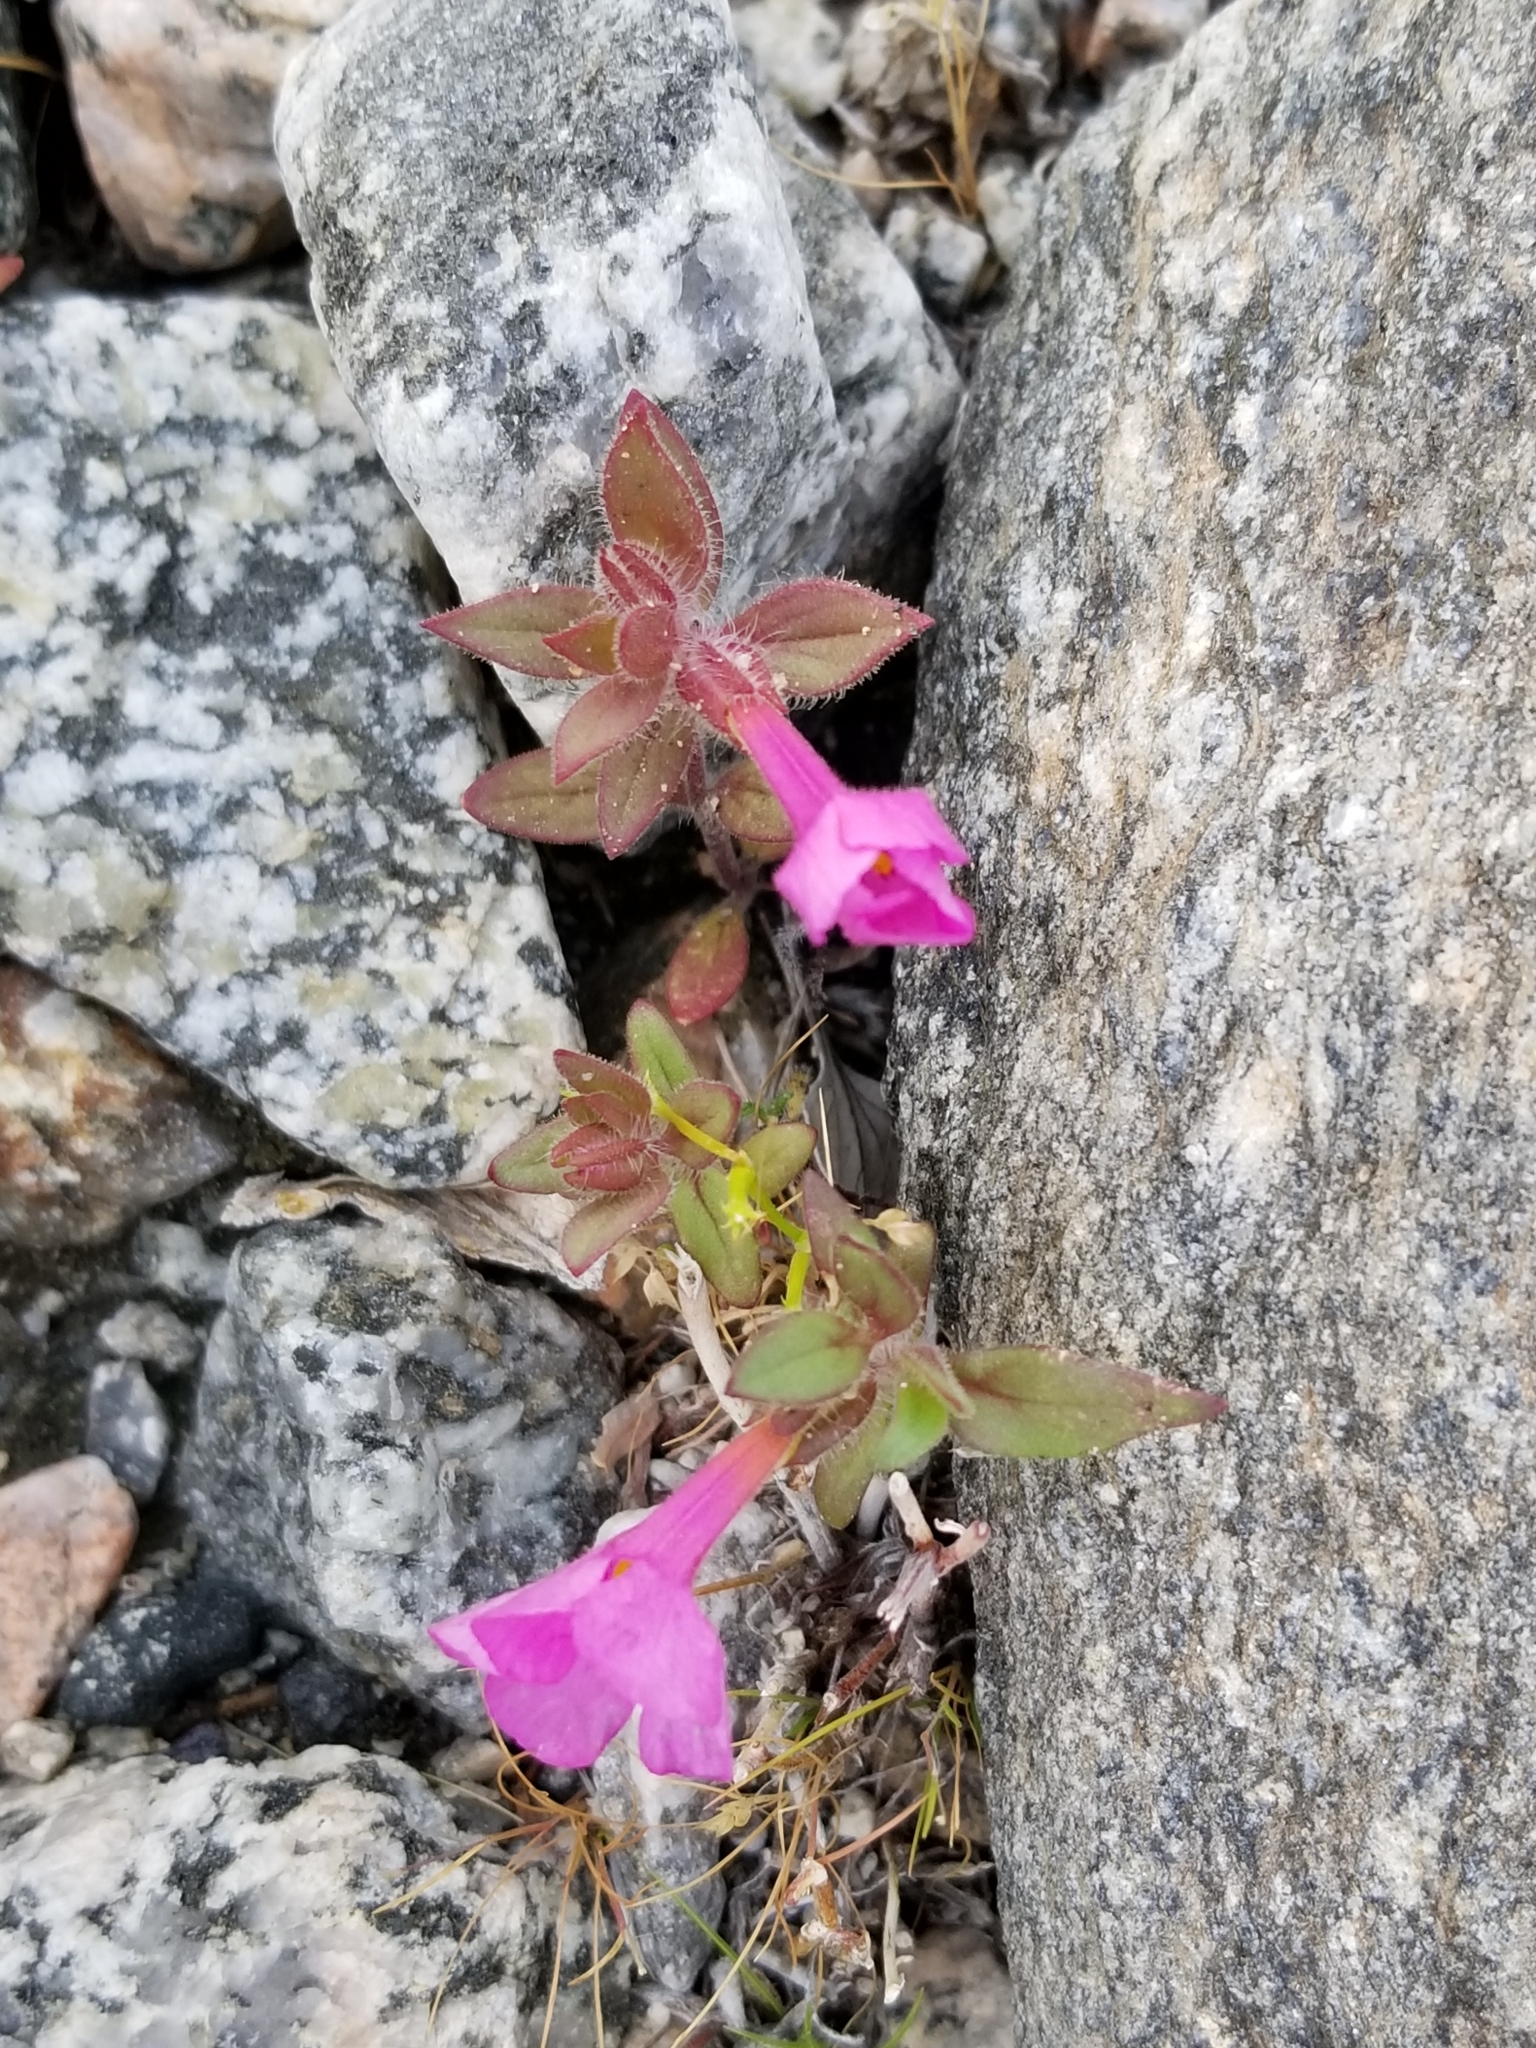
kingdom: Plantae
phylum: Tracheophyta
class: Magnoliopsida
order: Lamiales
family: Phrymaceae
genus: Diplacus
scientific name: Diplacus bigelovii
